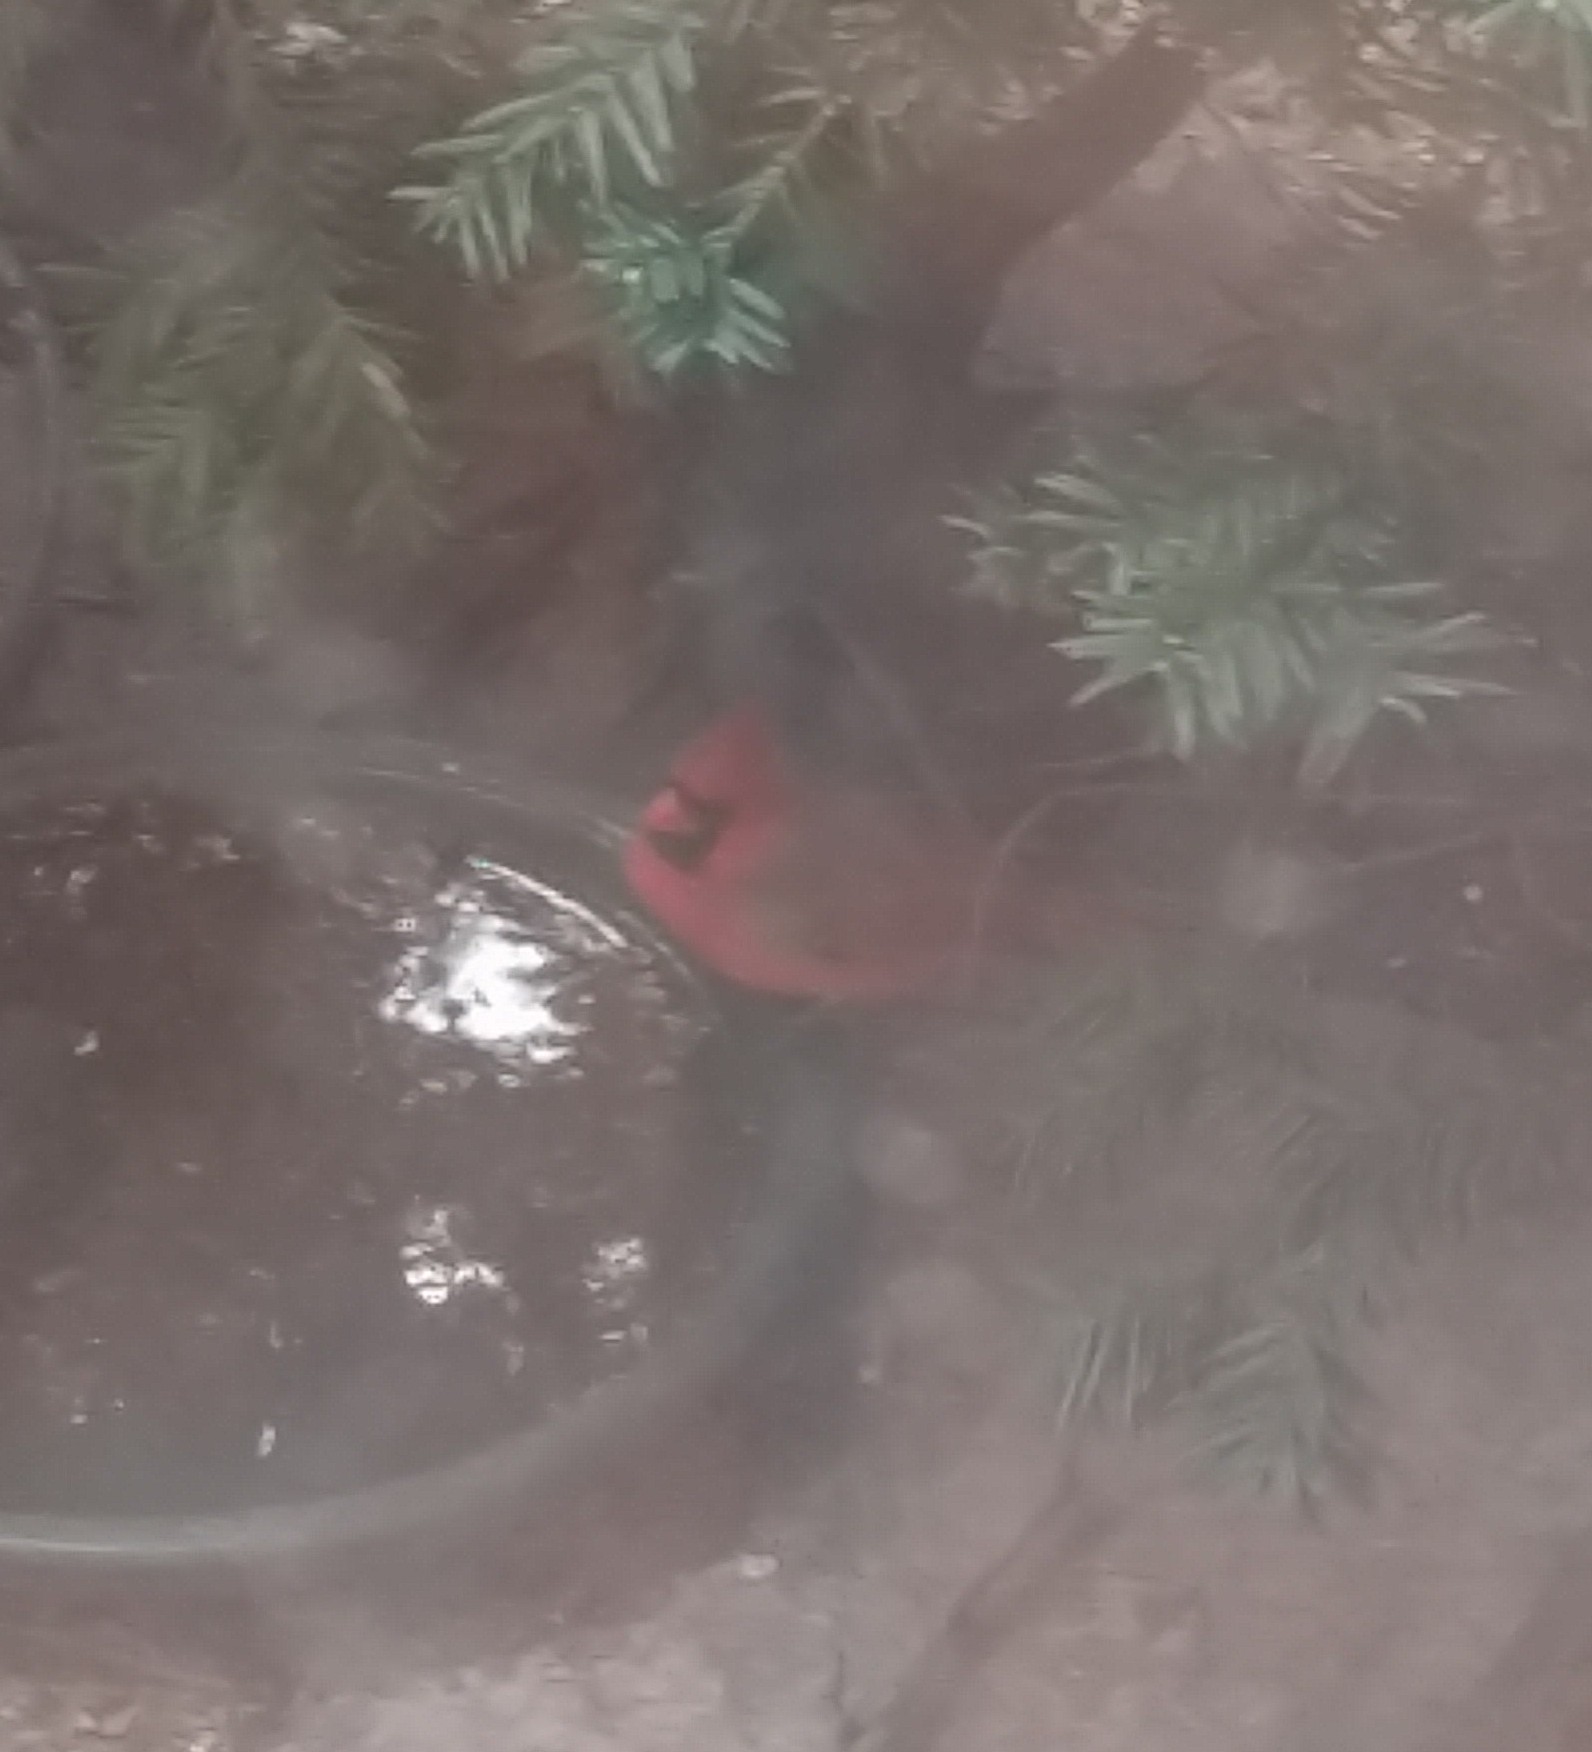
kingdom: Animalia
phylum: Chordata
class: Aves
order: Passeriformes
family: Cardinalidae
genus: Cardinalis
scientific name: Cardinalis cardinalis
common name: Northern cardinal
